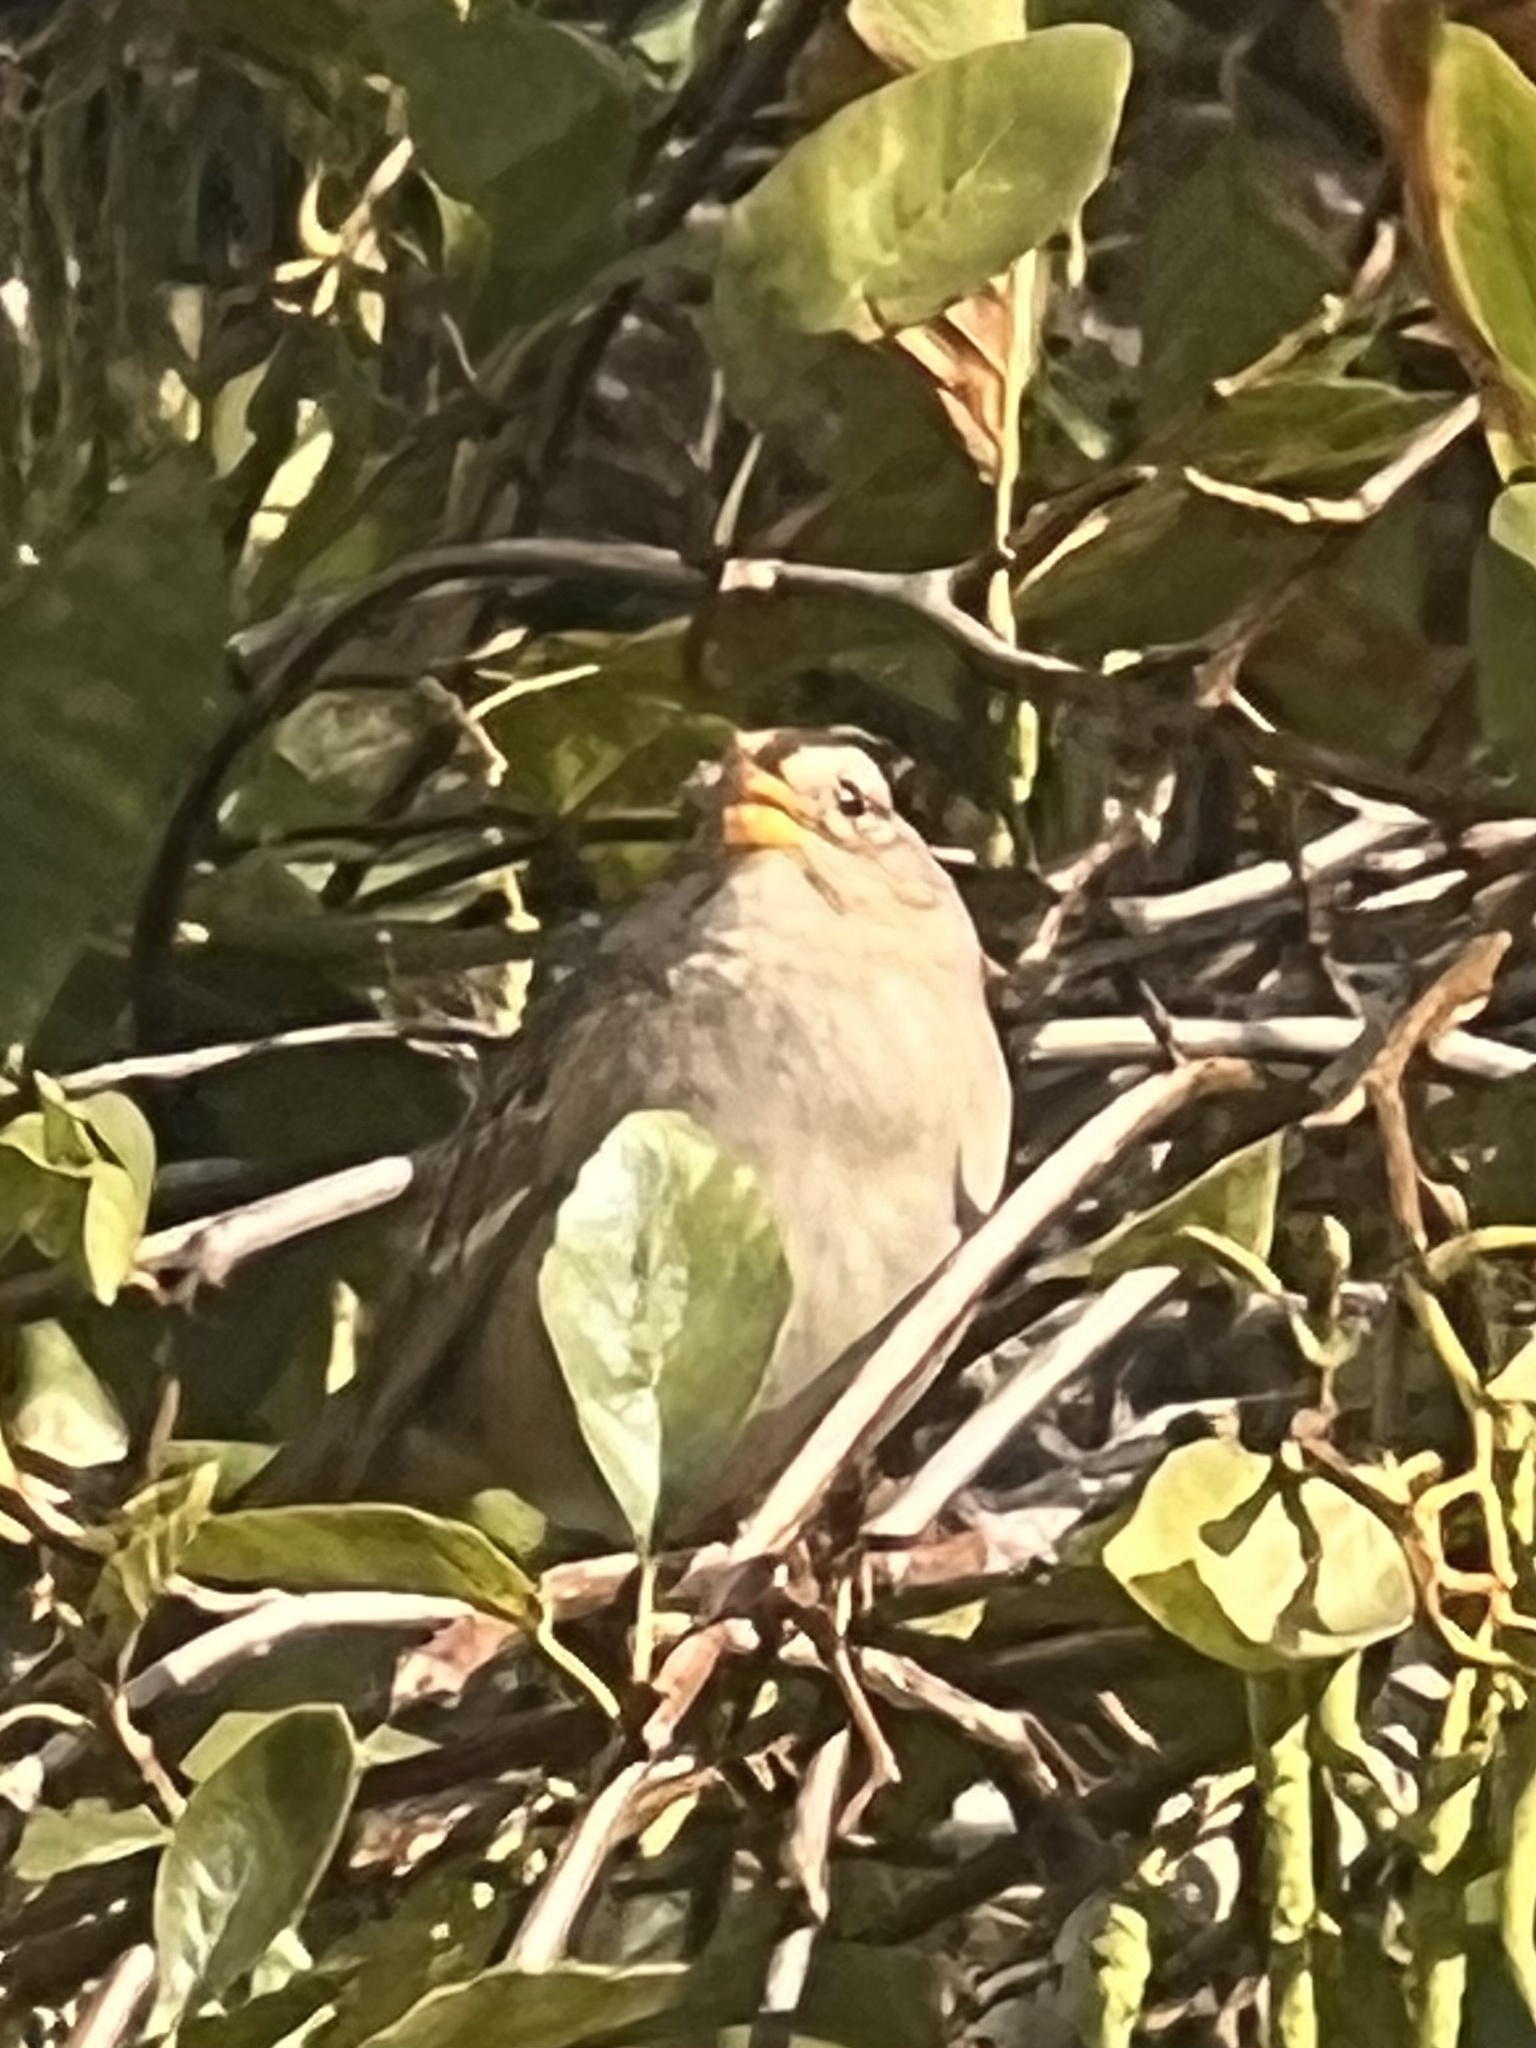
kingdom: Animalia
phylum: Chordata
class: Aves
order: Passeriformes
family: Passerellidae
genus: Zonotrichia
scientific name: Zonotrichia leucophrys
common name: White-crowned sparrow
